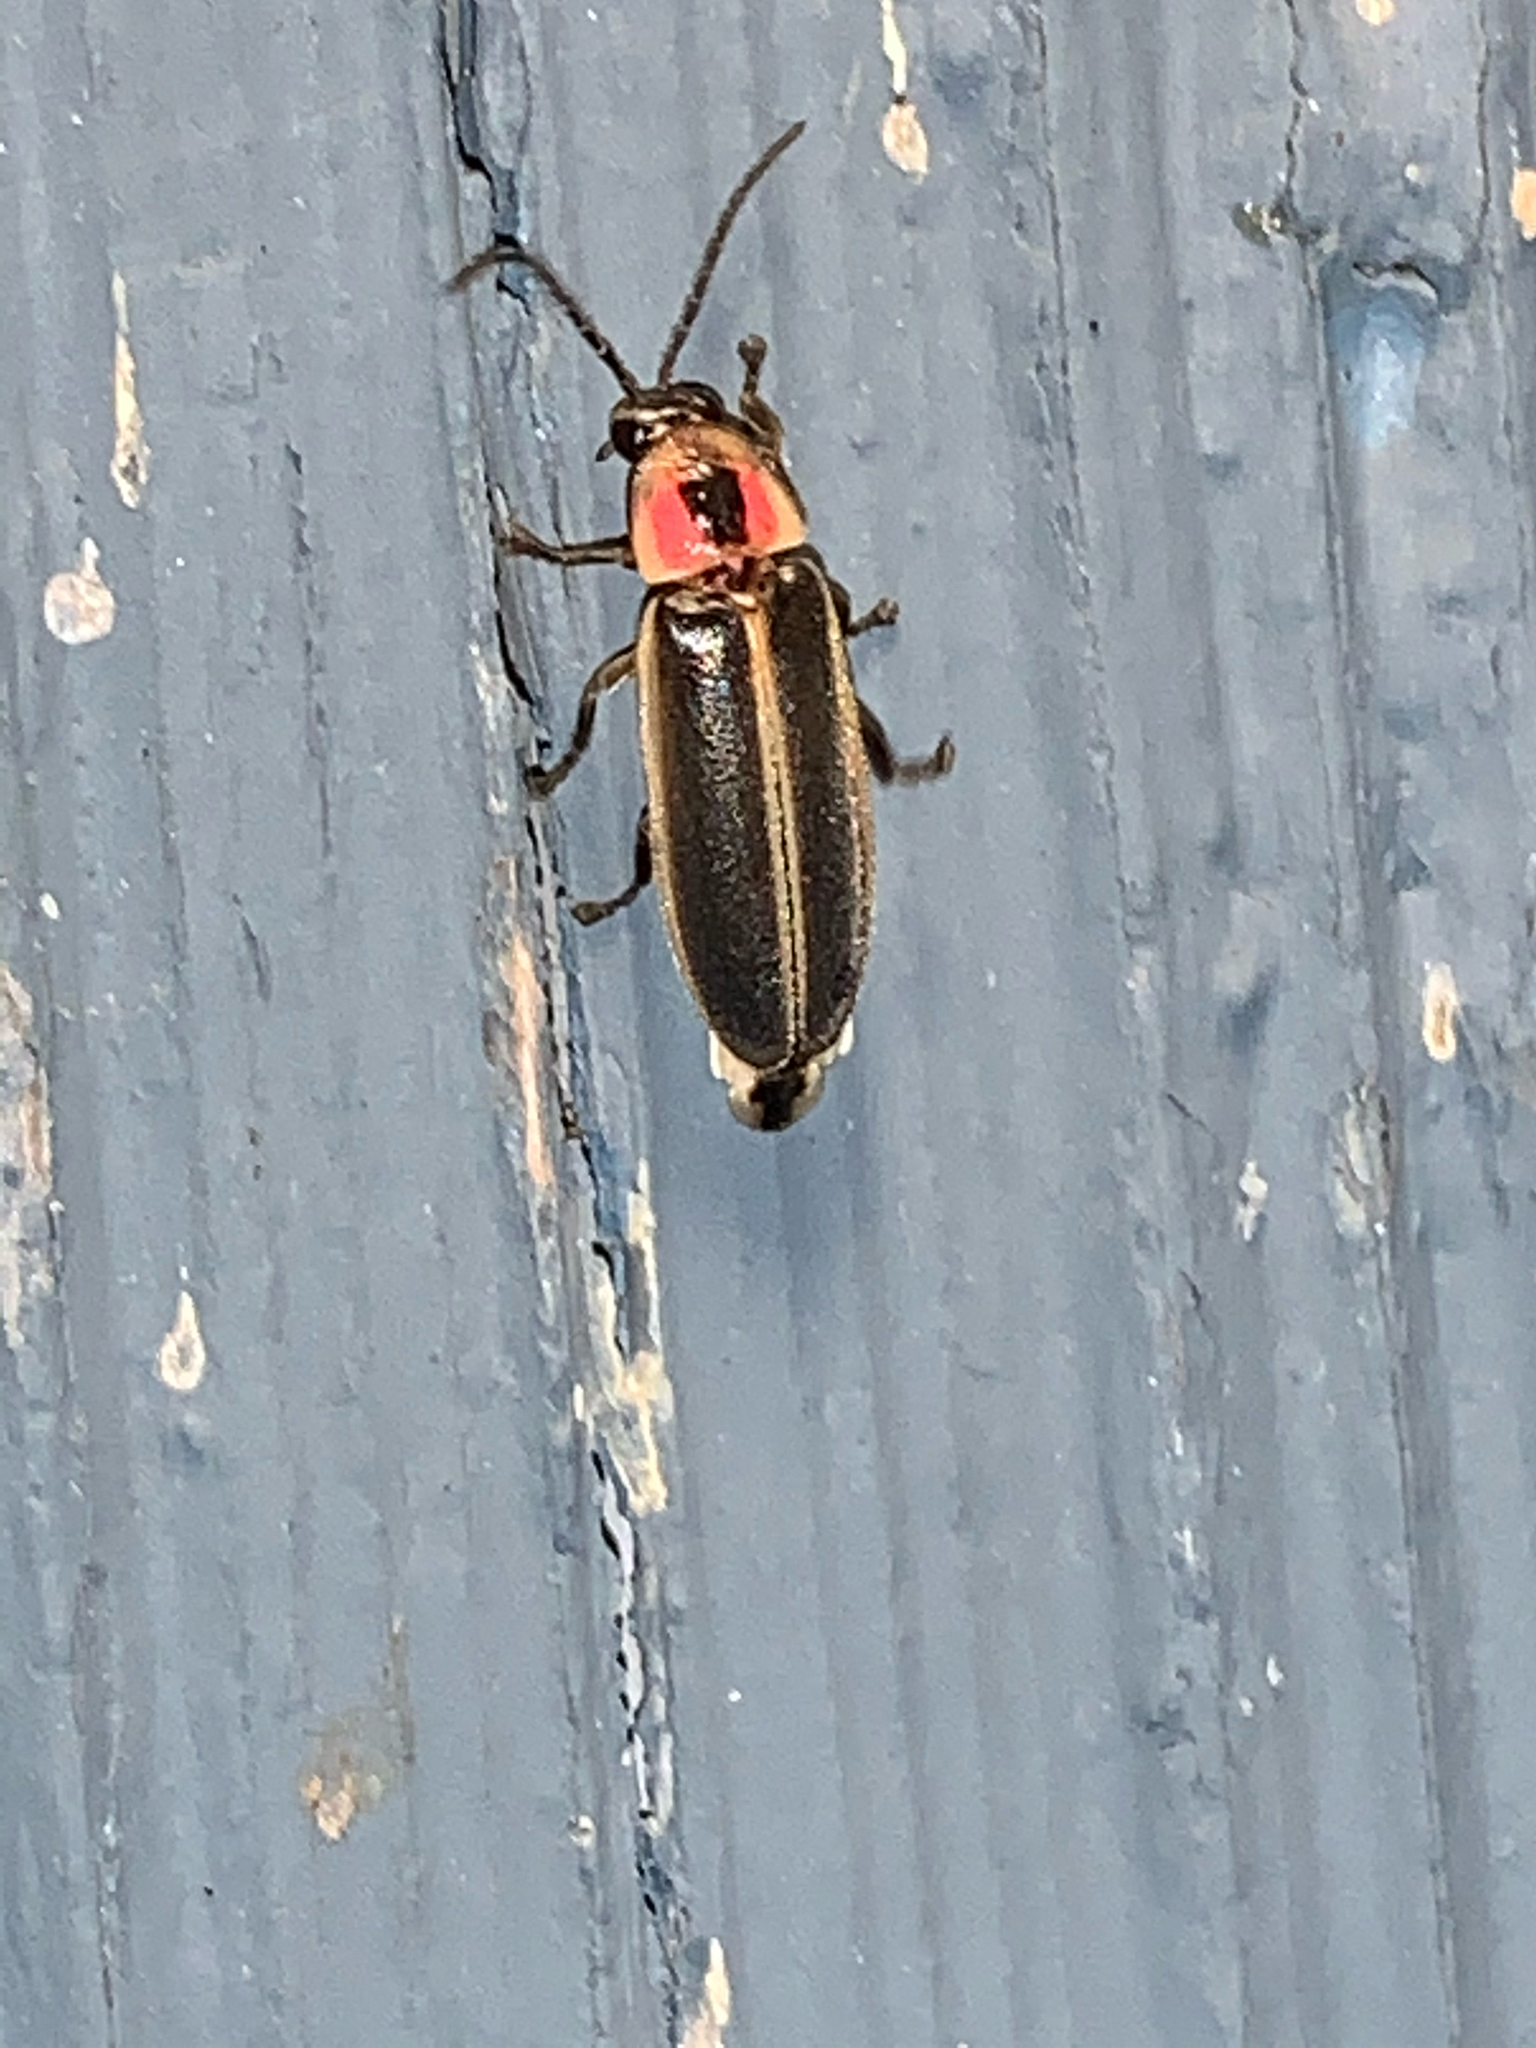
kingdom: Animalia
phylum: Arthropoda
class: Insecta
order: Coleoptera
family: Lampyridae
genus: Photinus
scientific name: Photinus
